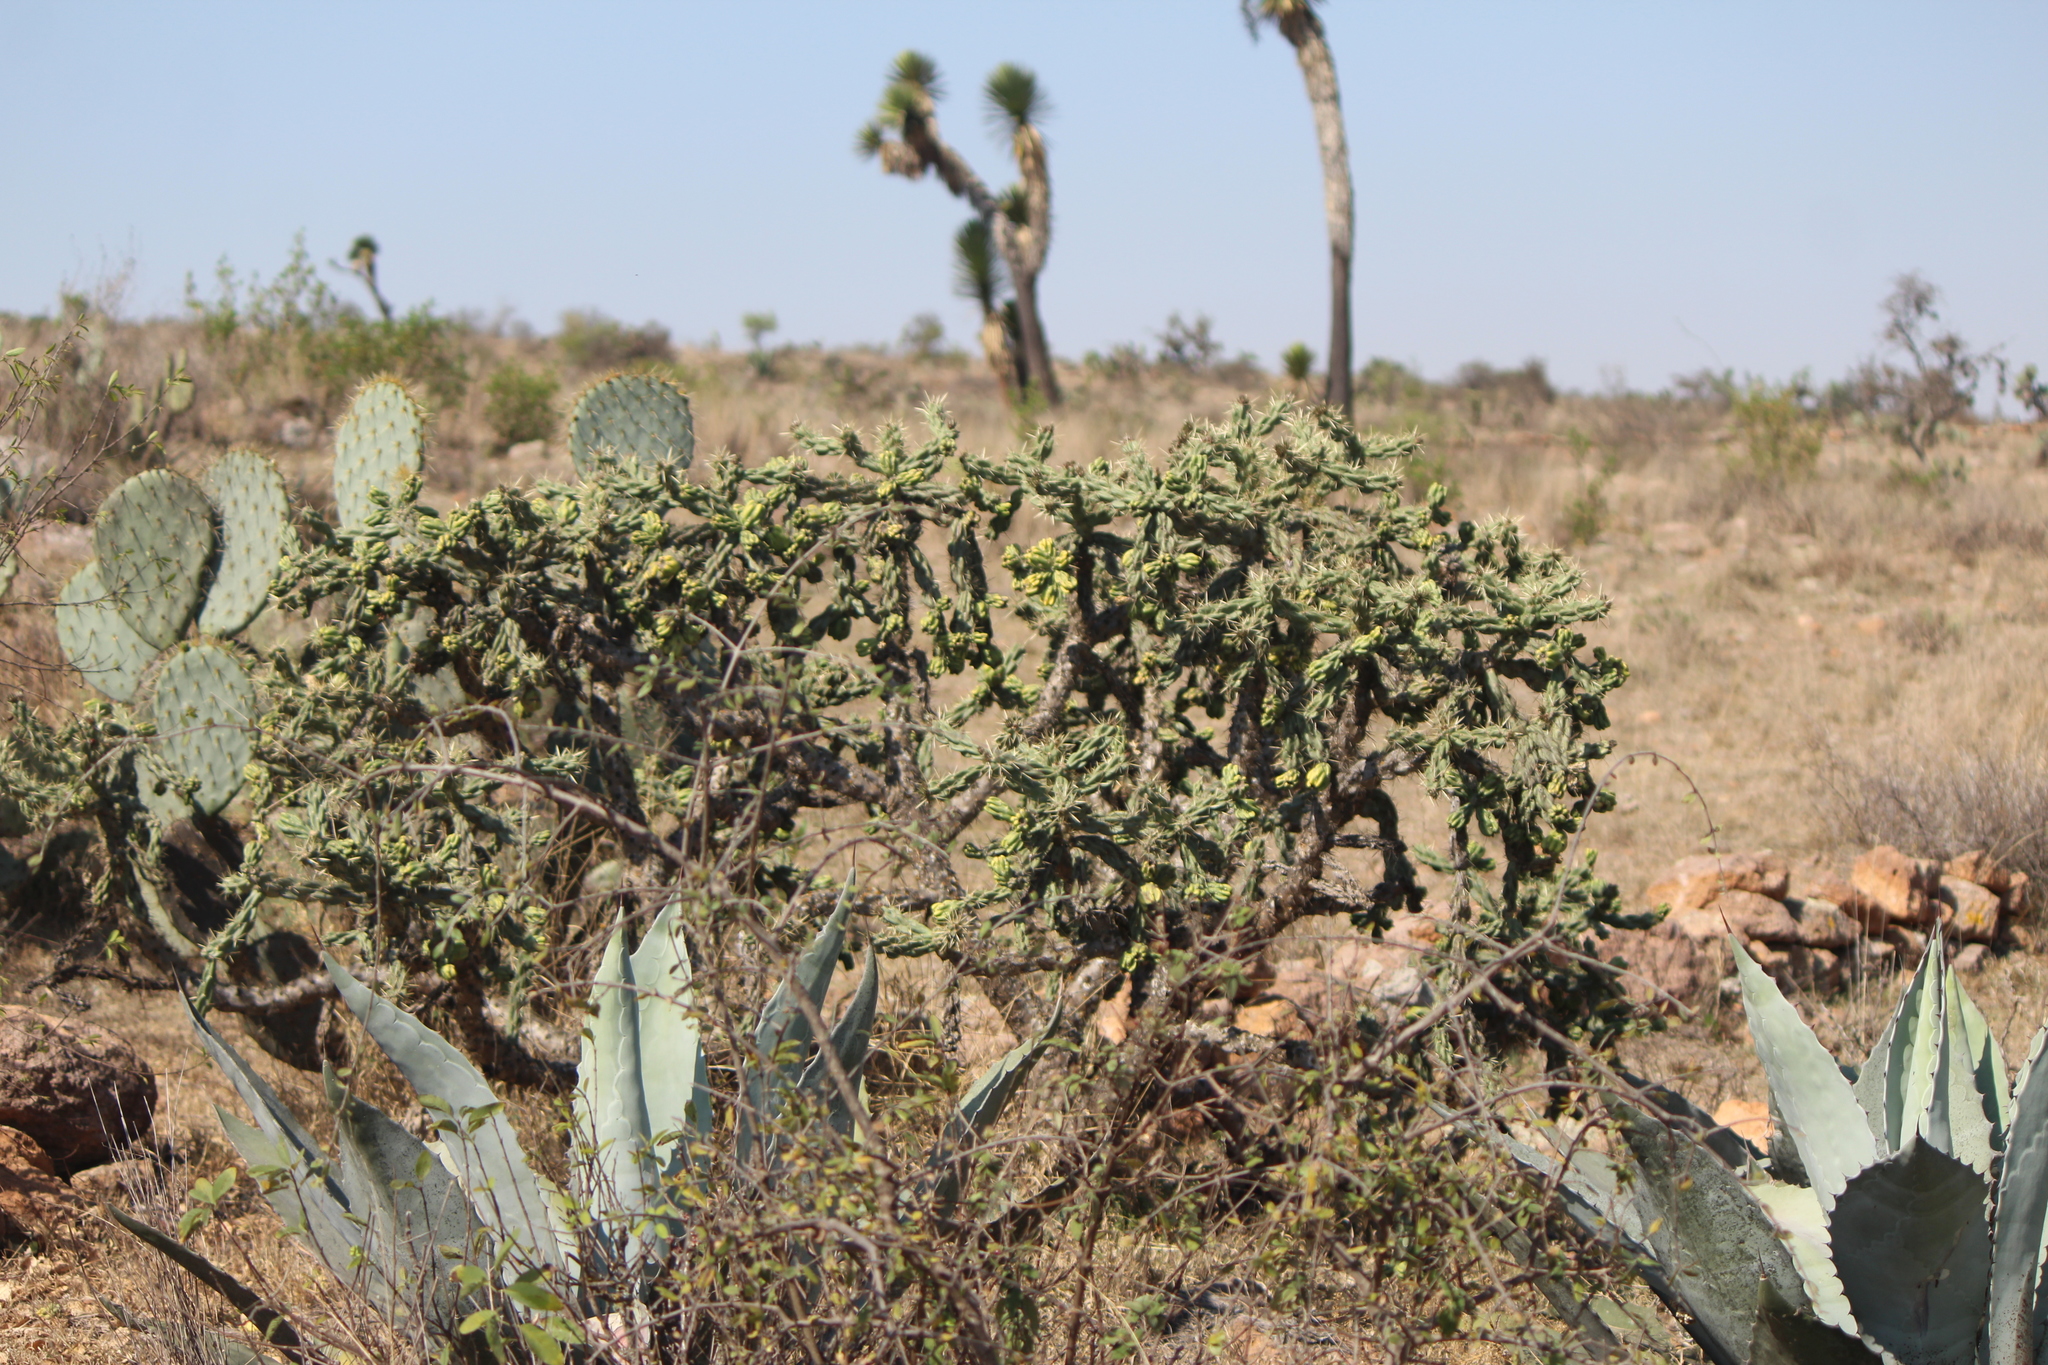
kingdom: Plantae
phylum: Tracheophyta
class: Magnoliopsida
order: Caryophyllales
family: Cactaceae
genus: Cylindropuntia
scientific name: Cylindropuntia imbricata
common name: Candelabrum cactus
